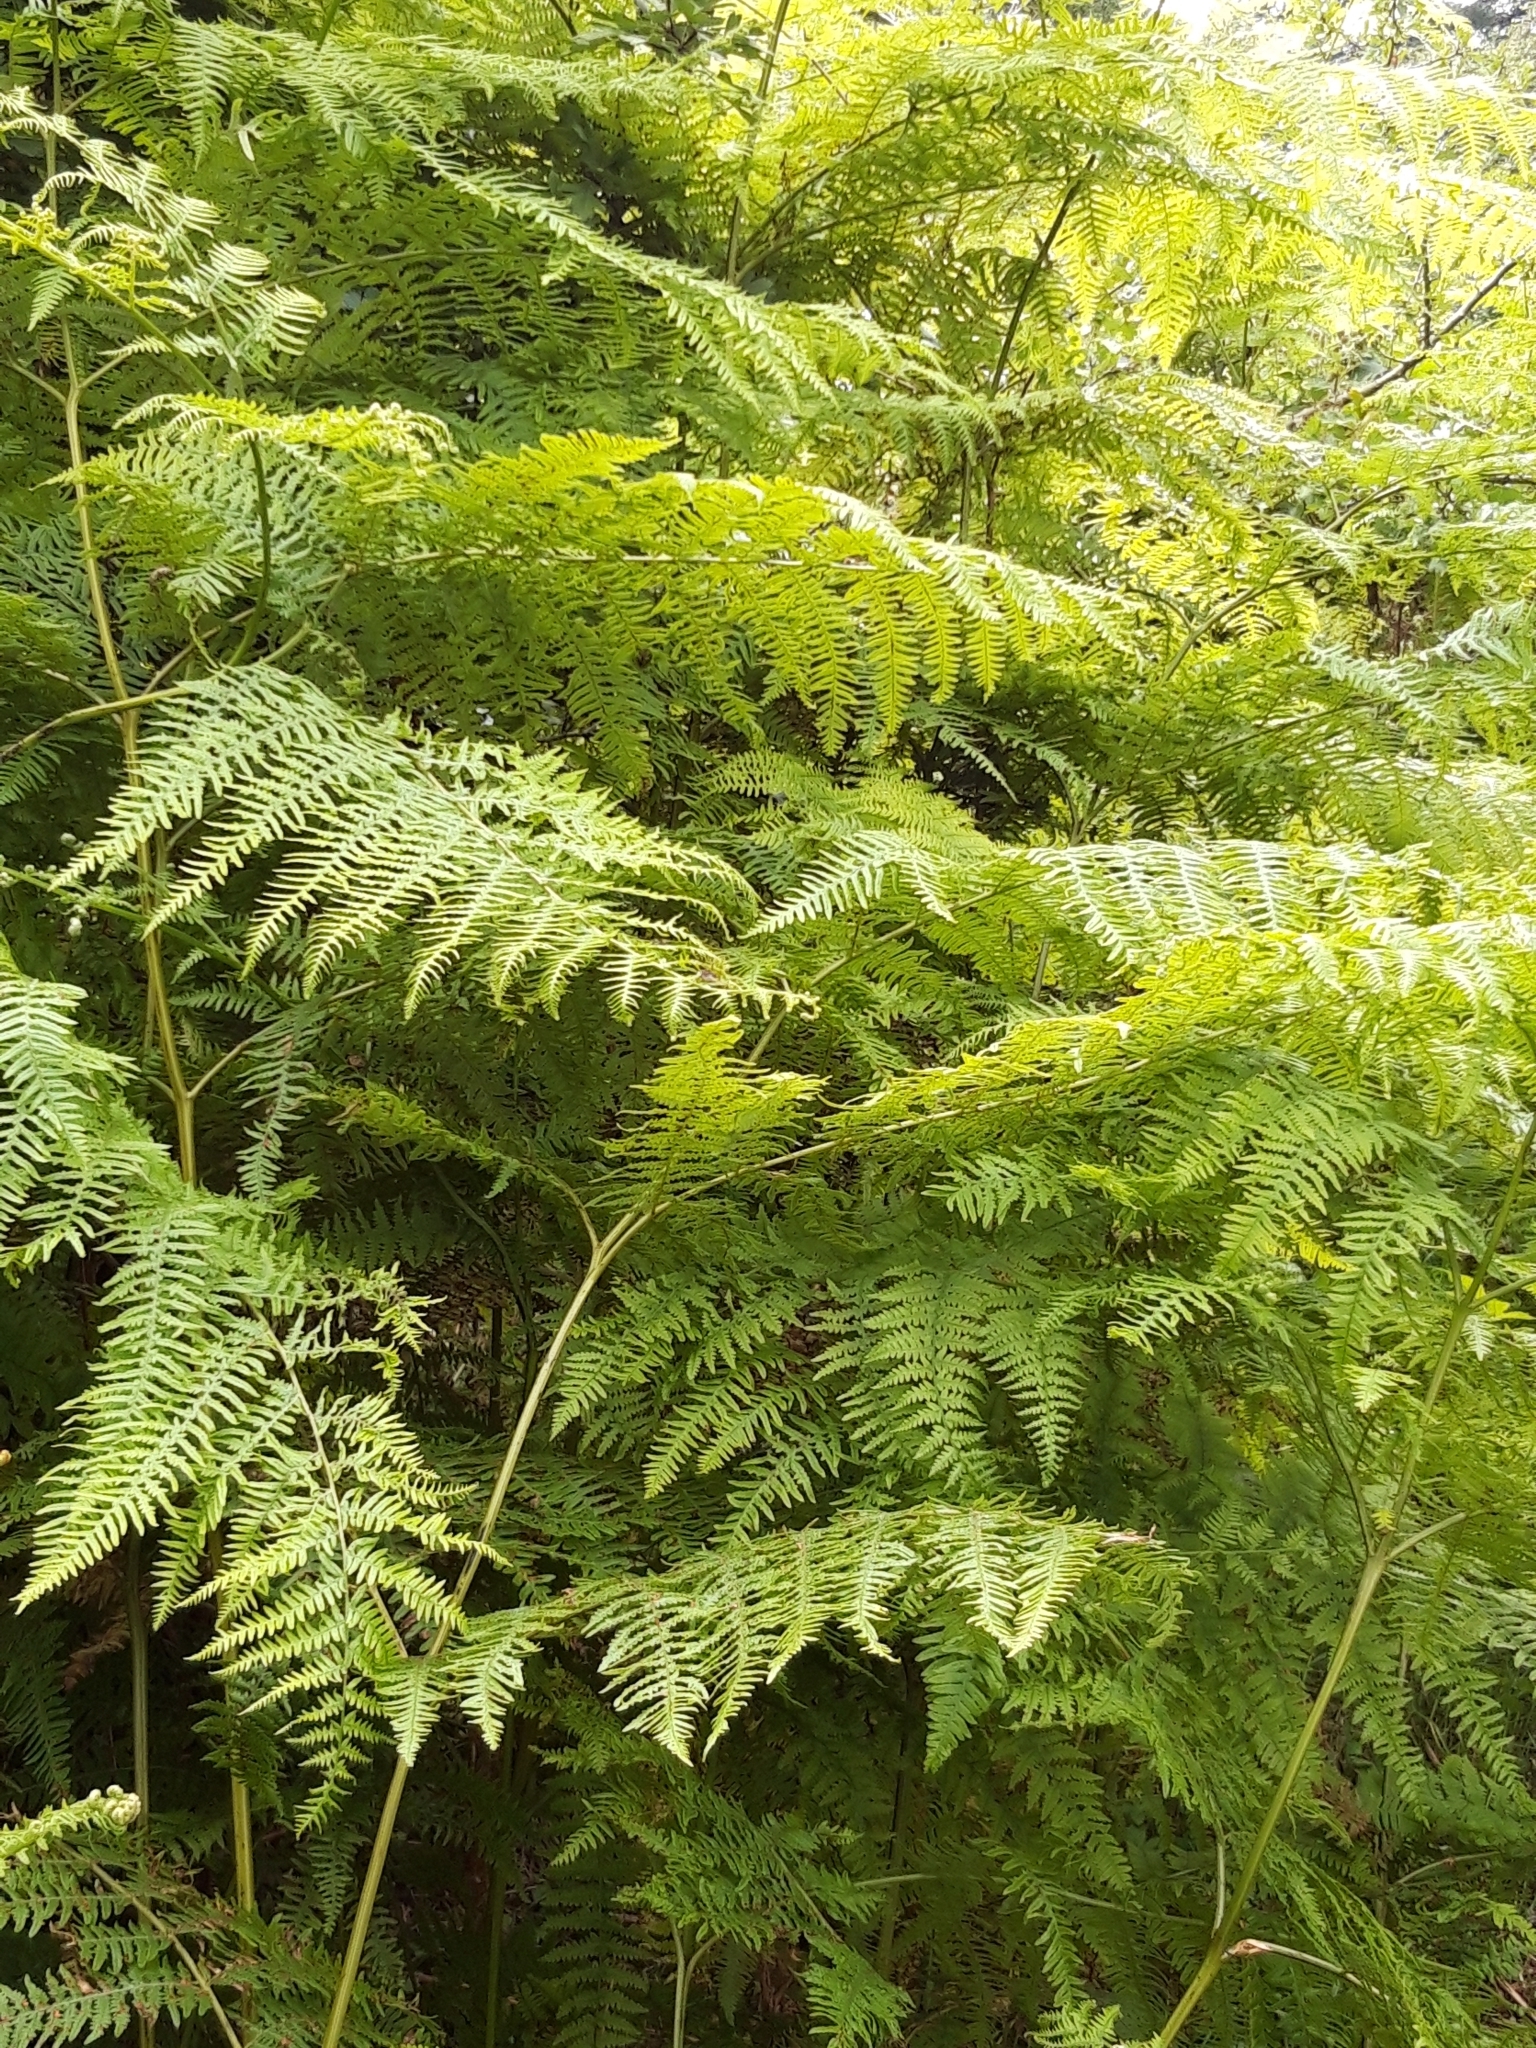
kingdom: Plantae
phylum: Tracheophyta
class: Polypodiopsida
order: Polypodiales
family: Dennstaedtiaceae
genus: Pteridium
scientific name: Pteridium aquilinum
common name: Bracken
